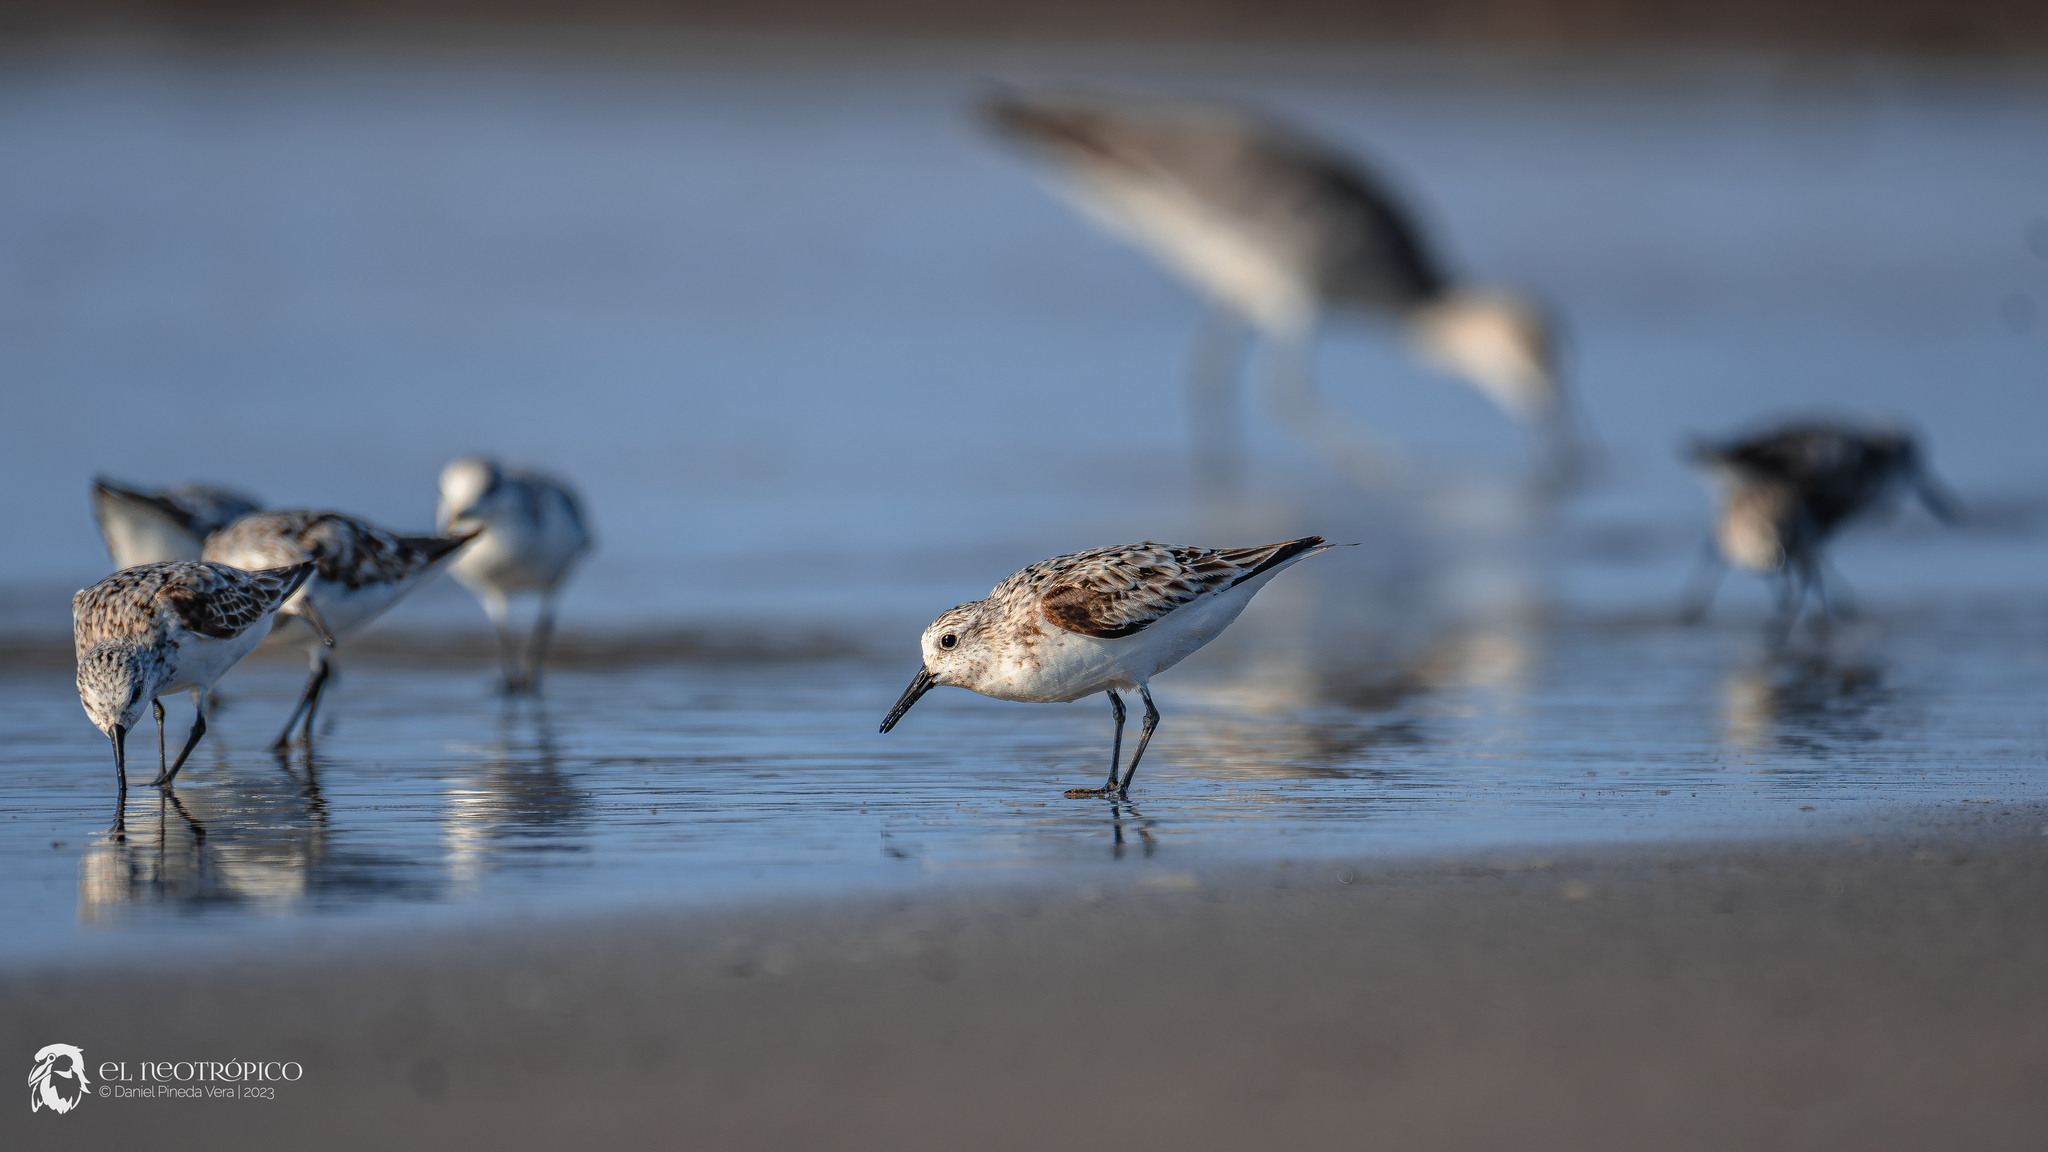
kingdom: Animalia
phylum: Chordata
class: Aves
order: Charadriiformes
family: Scolopacidae
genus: Calidris
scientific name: Calidris alba
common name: Sanderling
